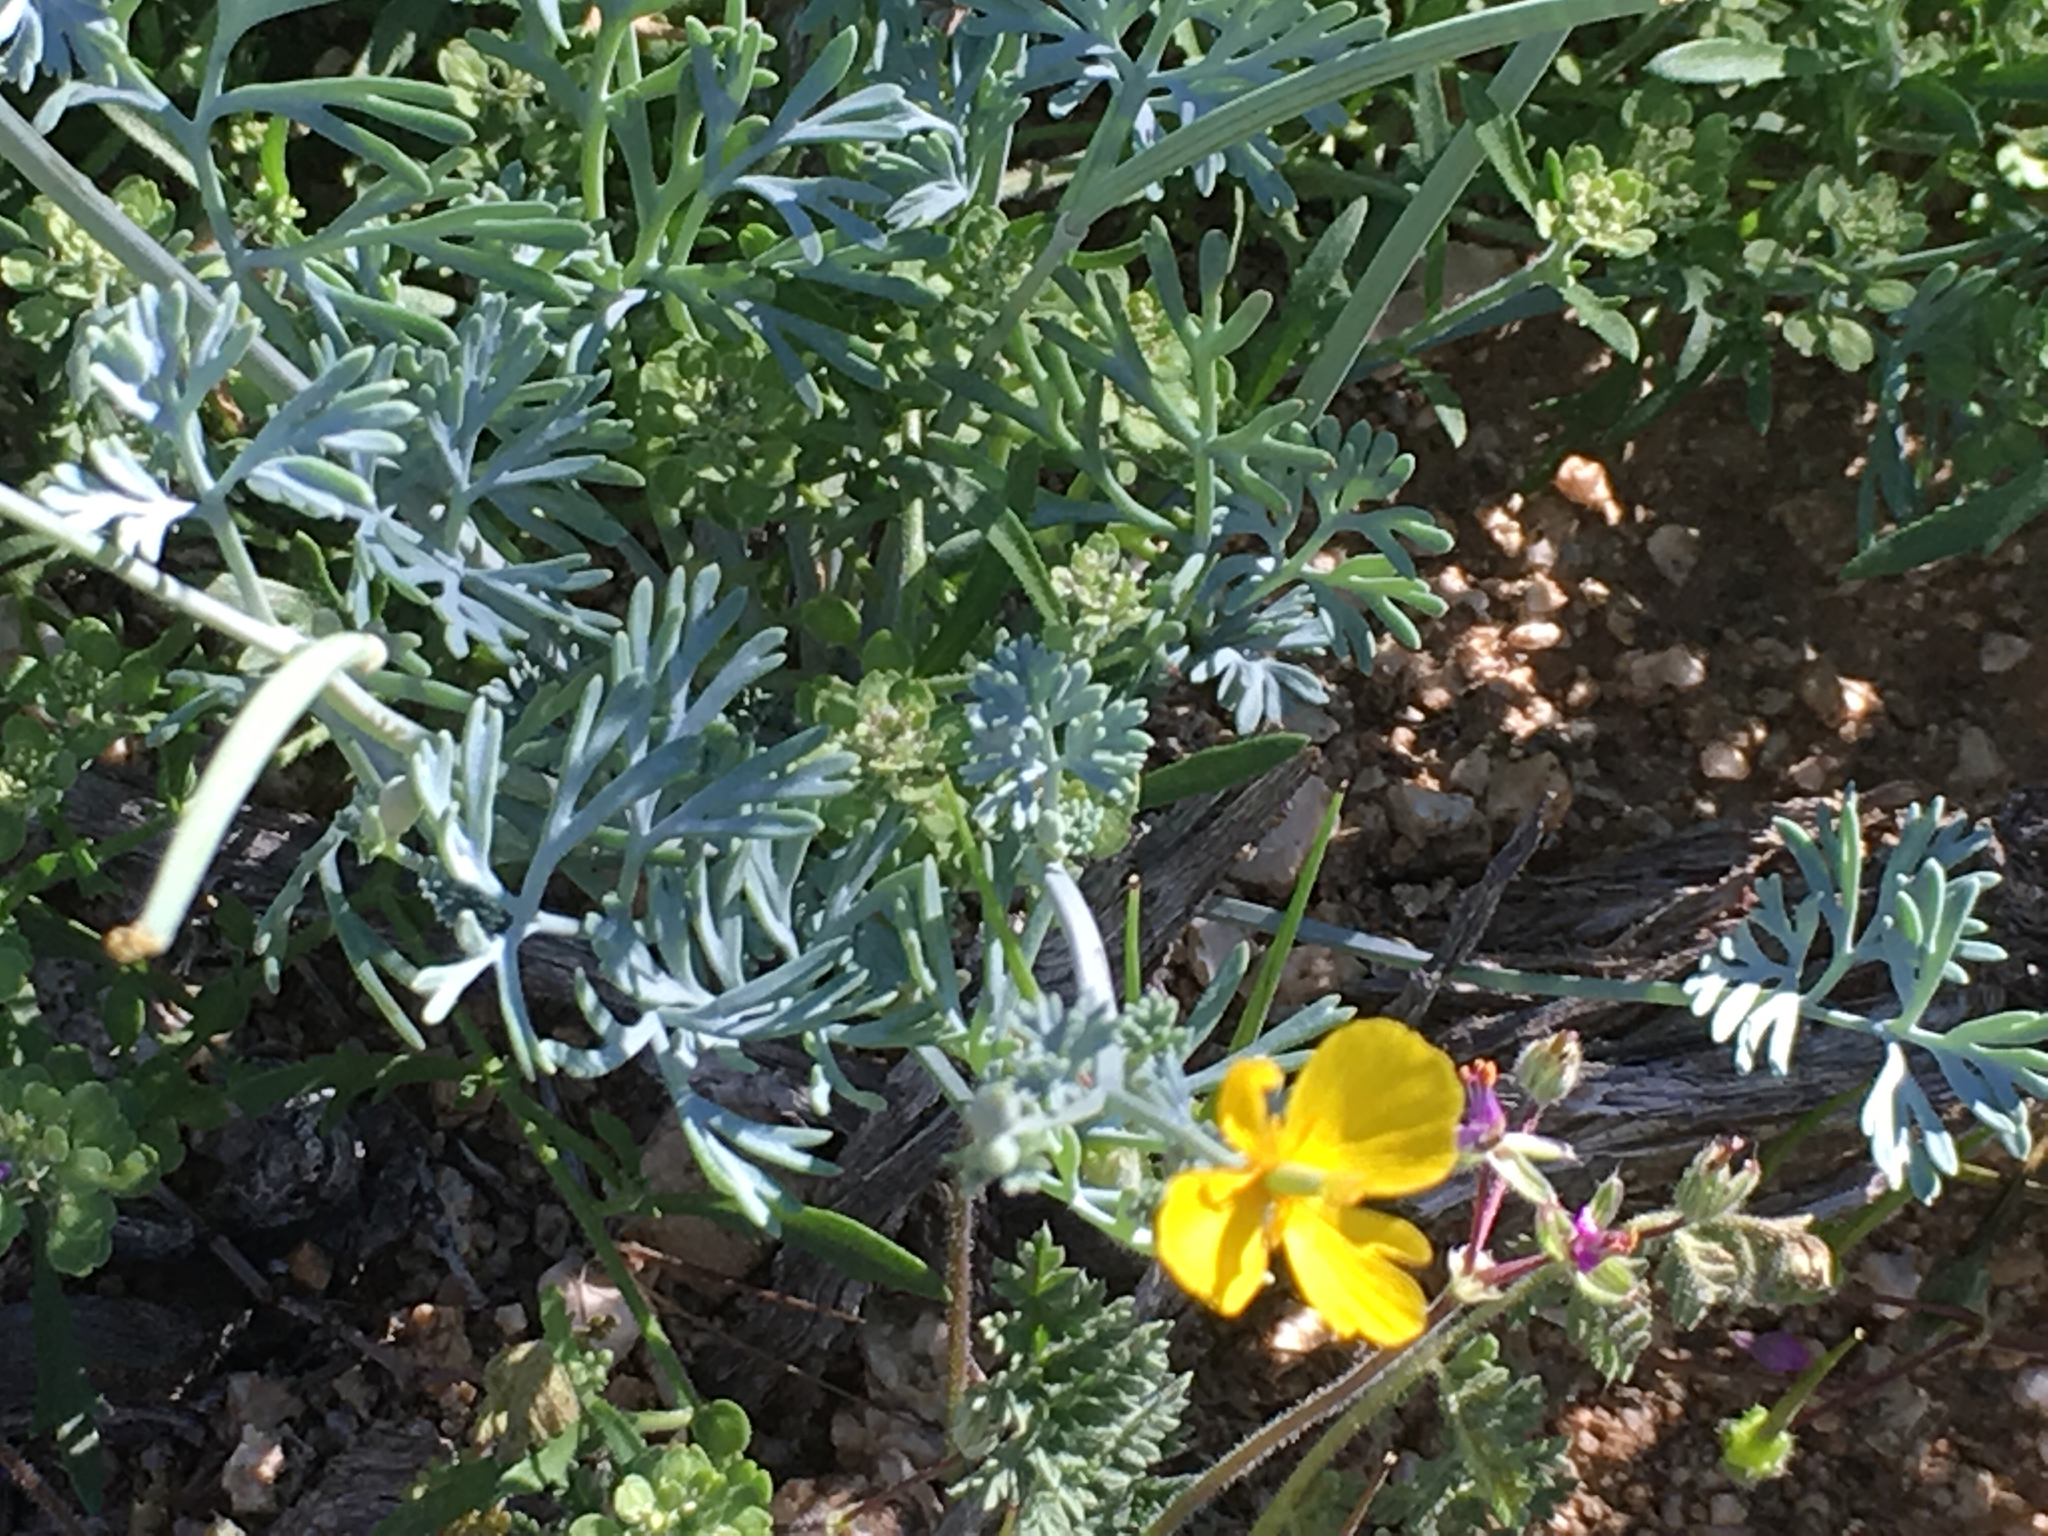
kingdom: Plantae
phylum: Tracheophyta
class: Magnoliopsida
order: Ranunculales
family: Papaveraceae
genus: Eschscholzia
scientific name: Eschscholzia minutiflora
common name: Small-flower california-poppy
